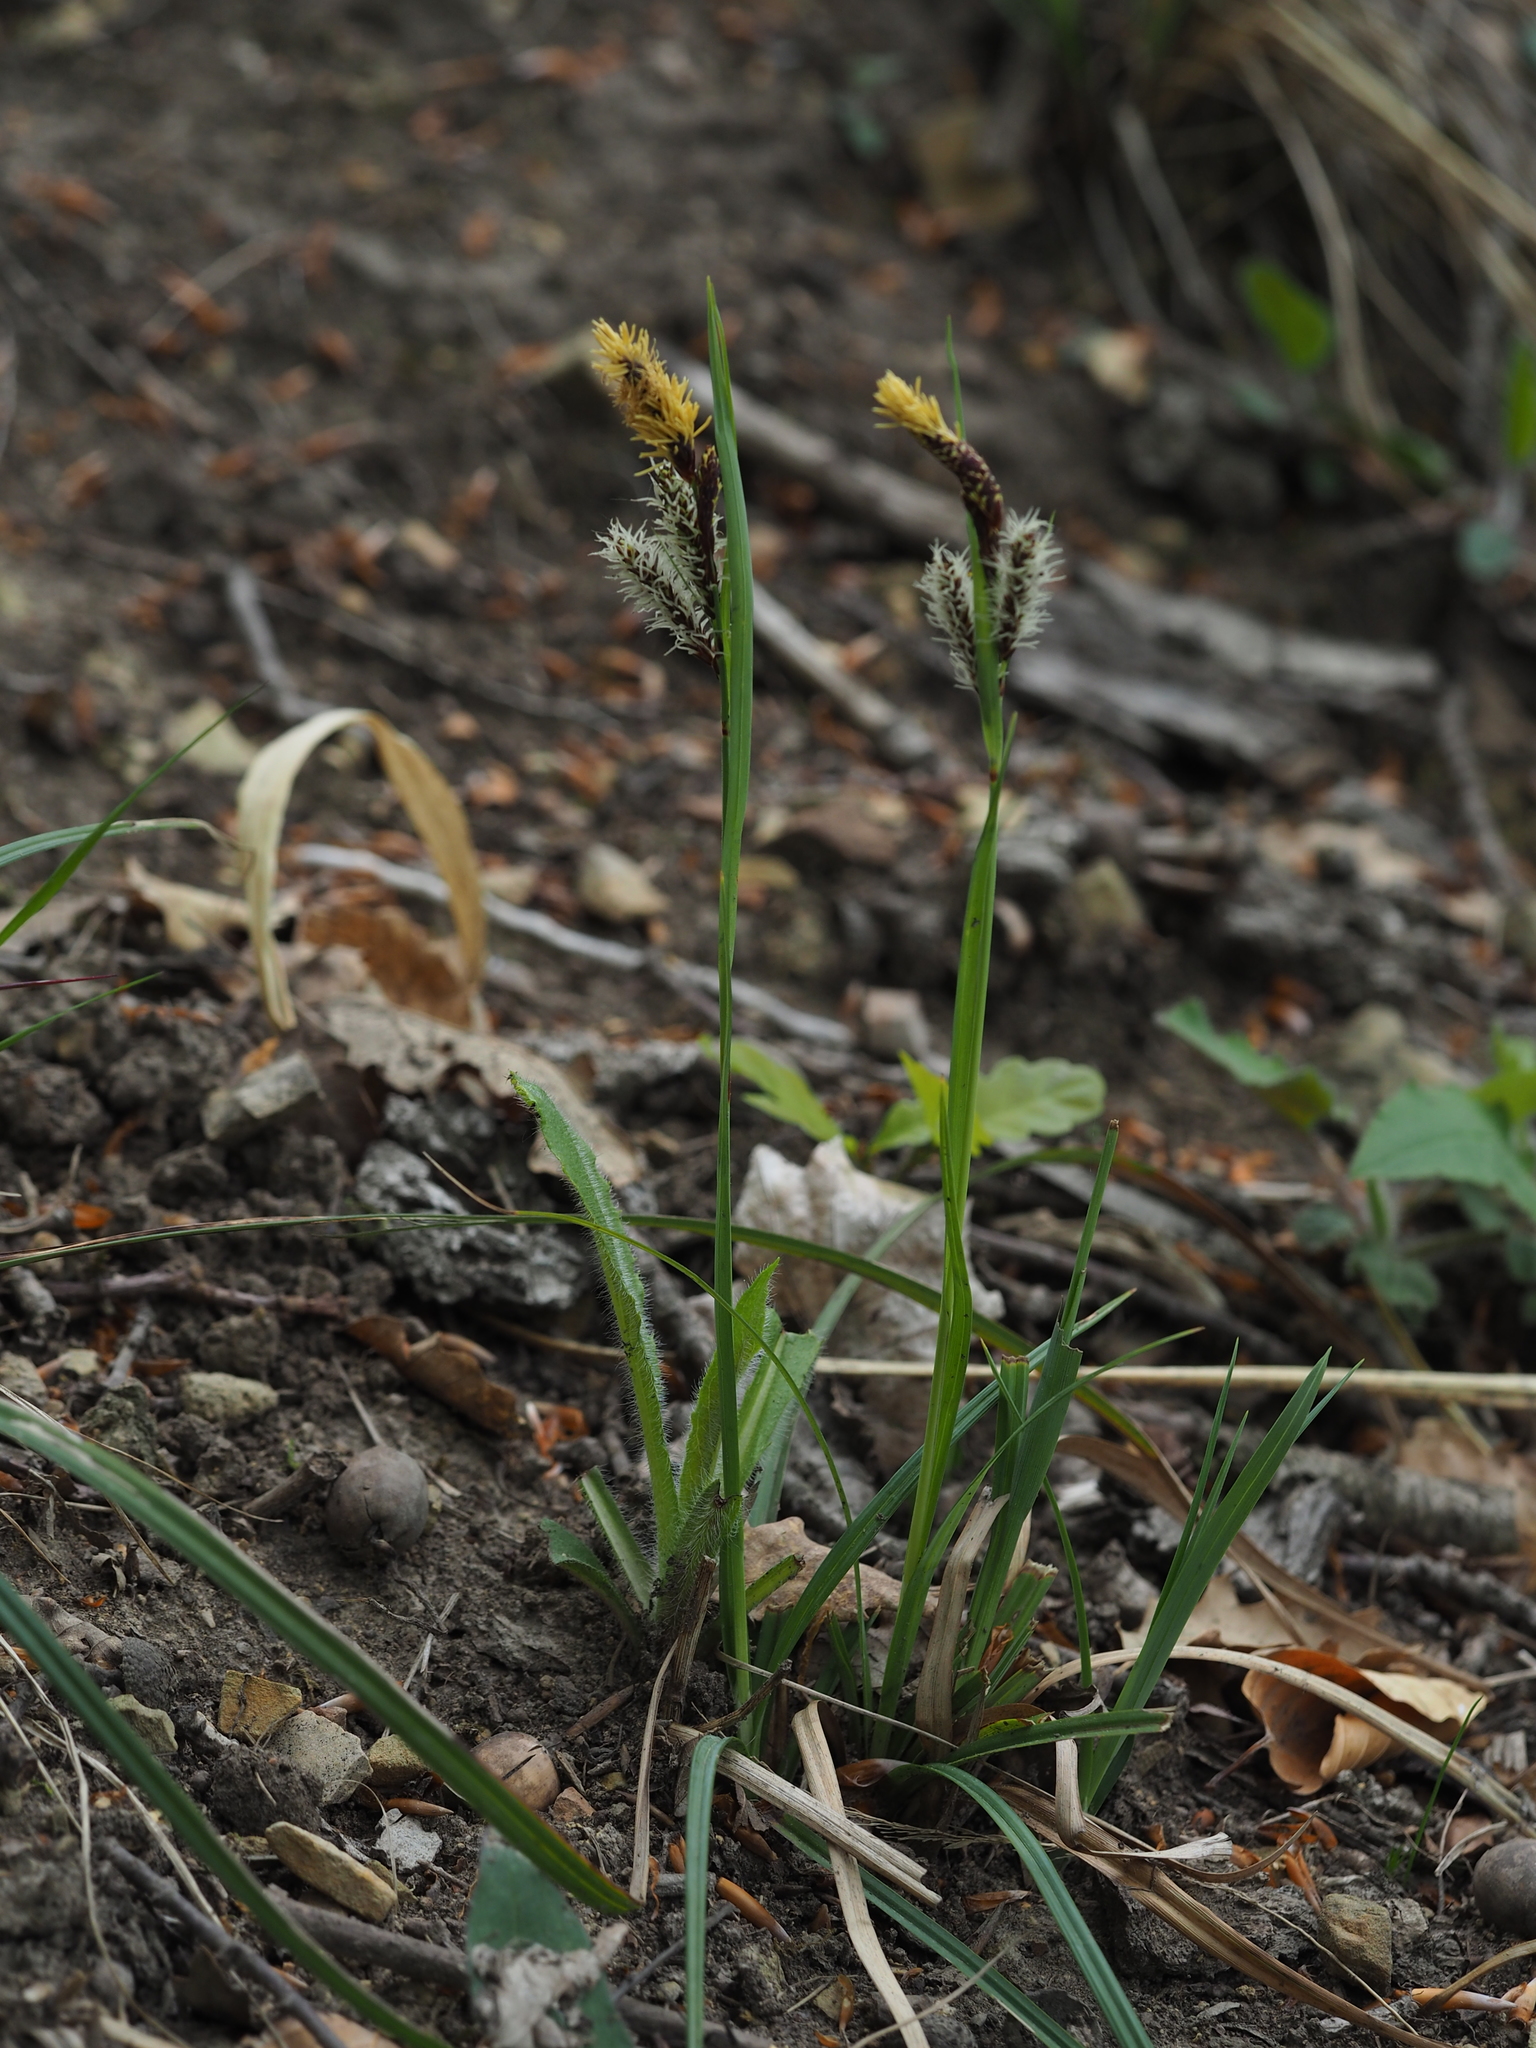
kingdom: Plantae
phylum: Tracheophyta
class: Liliopsida
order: Poales
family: Cyperaceae
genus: Carex
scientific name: Carex flacca
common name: Glaucous sedge
